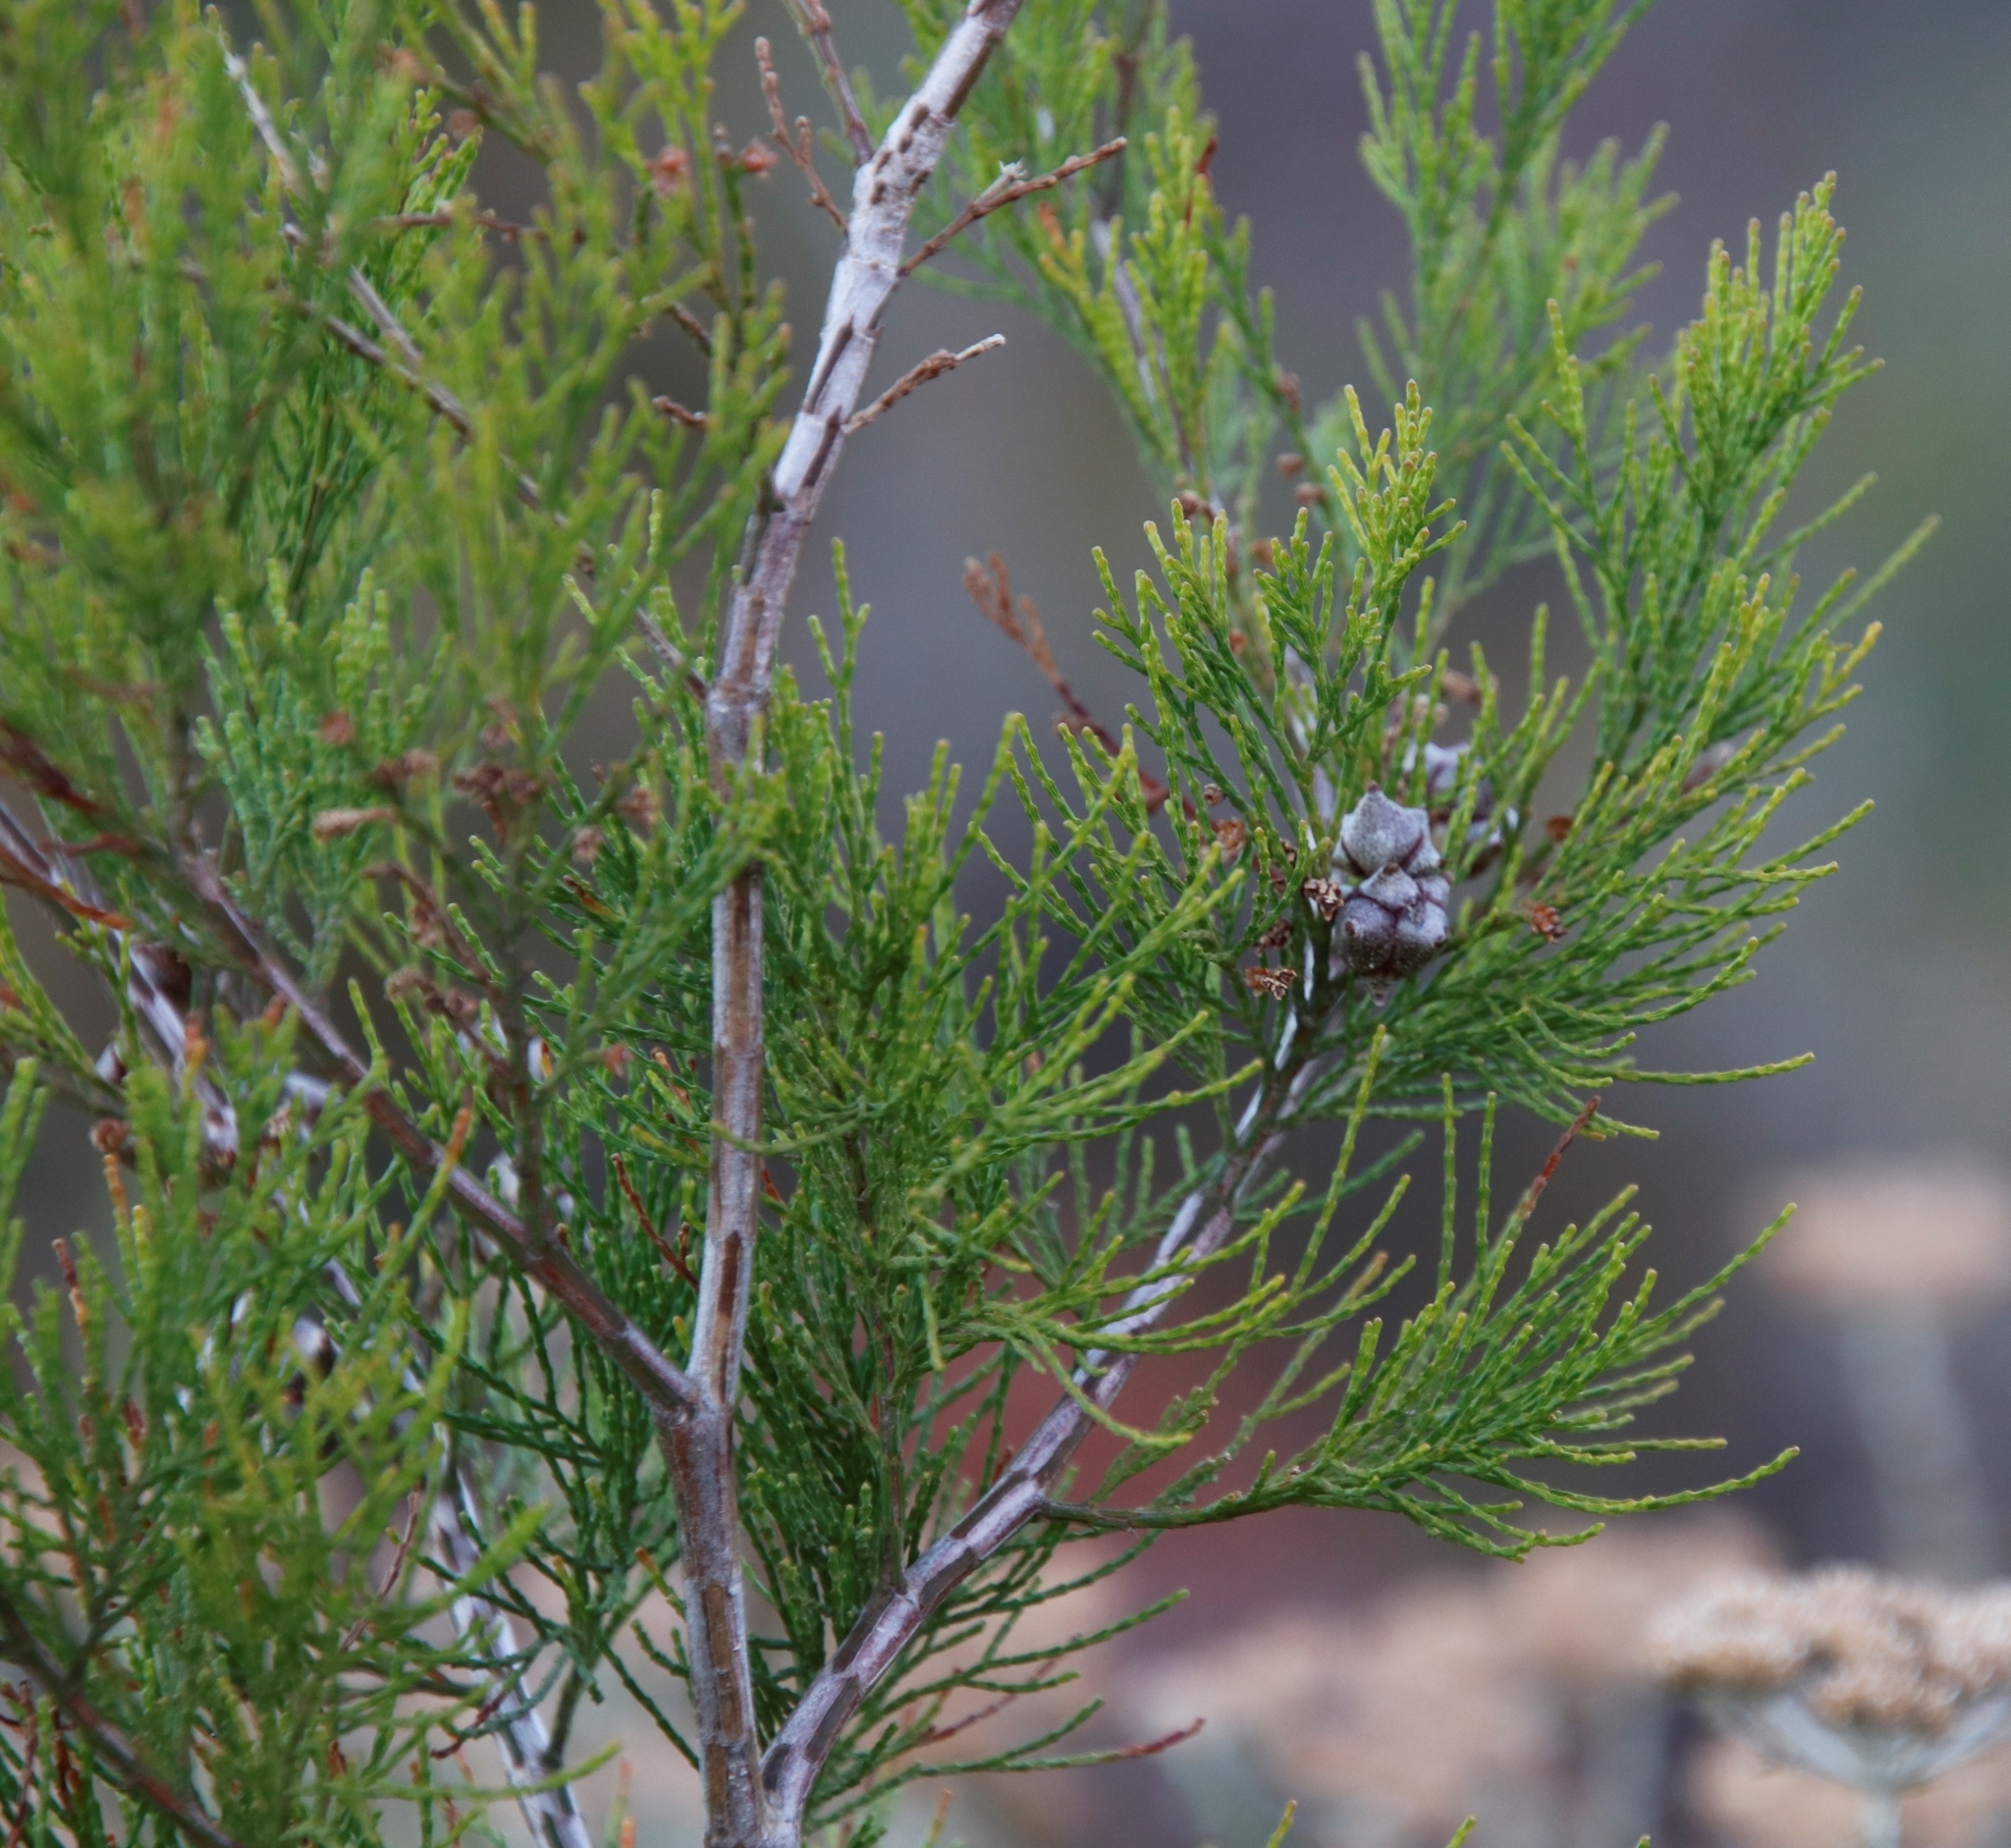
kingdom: Plantae
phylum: Tracheophyta
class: Pinopsida
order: Pinales
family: Cupressaceae
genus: Callitris
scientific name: Callitris rhomboidea
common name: Illawara mountain pine
